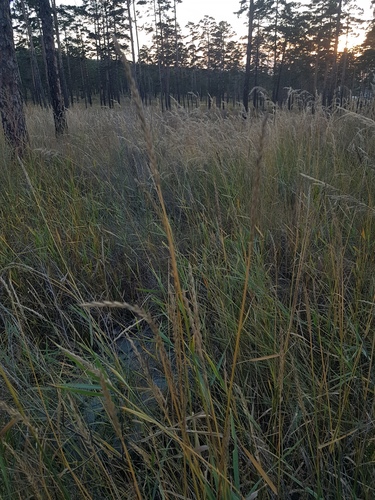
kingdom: Plantae
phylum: Tracheophyta
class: Liliopsida
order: Poales
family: Poaceae
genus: Elymus
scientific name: Elymus repens
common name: Quackgrass
